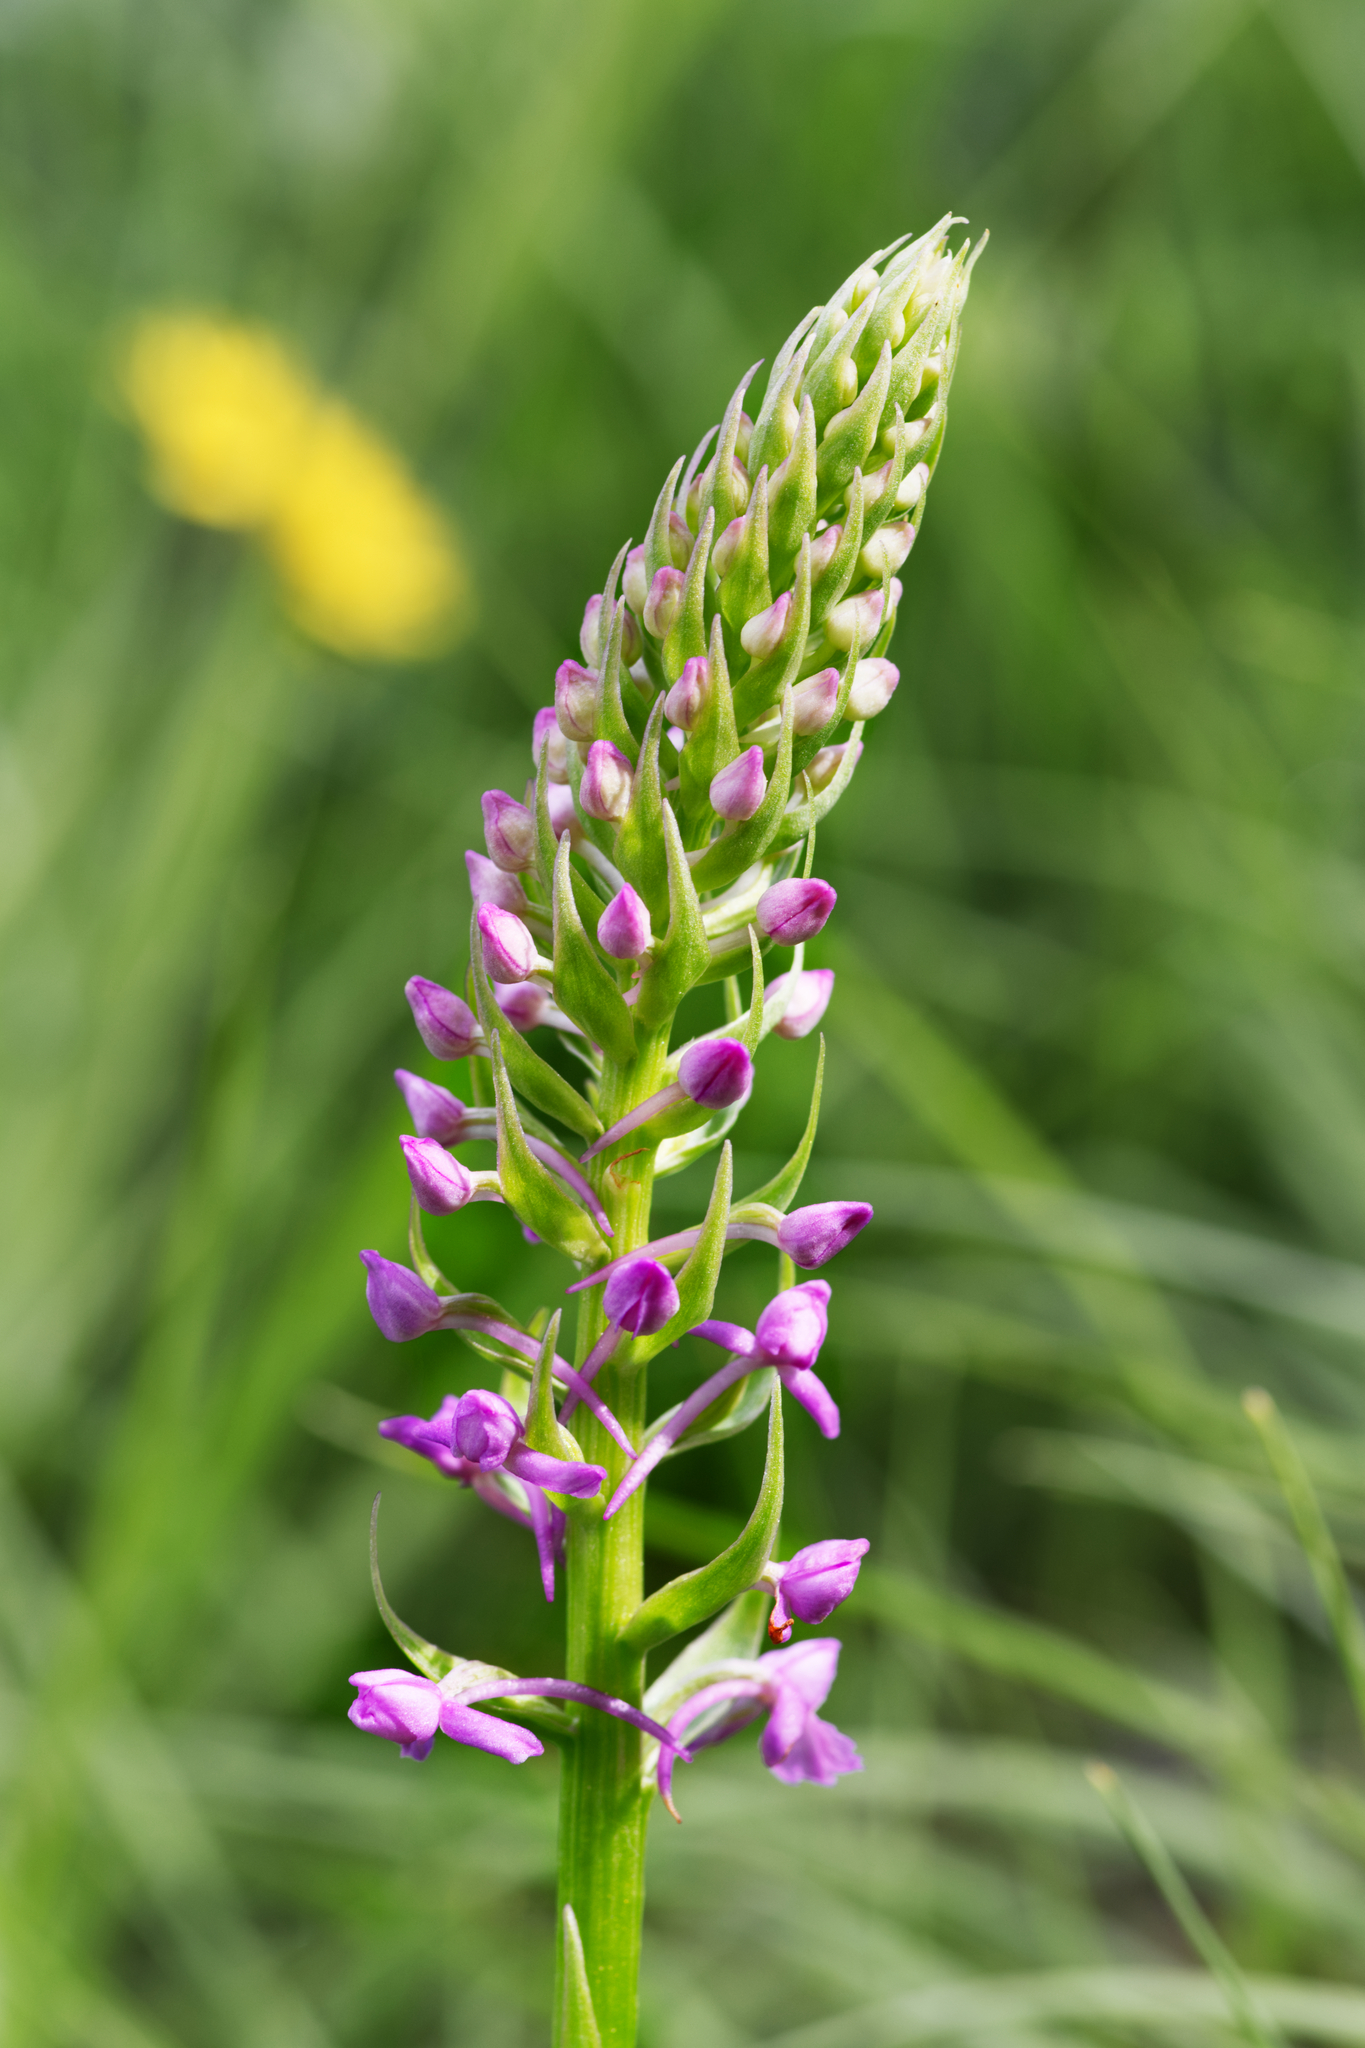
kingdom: Plantae
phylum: Tracheophyta
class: Liliopsida
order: Asparagales
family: Orchidaceae
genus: Gymnadenia
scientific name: Gymnadenia conopsea
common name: Fragrant orchid
